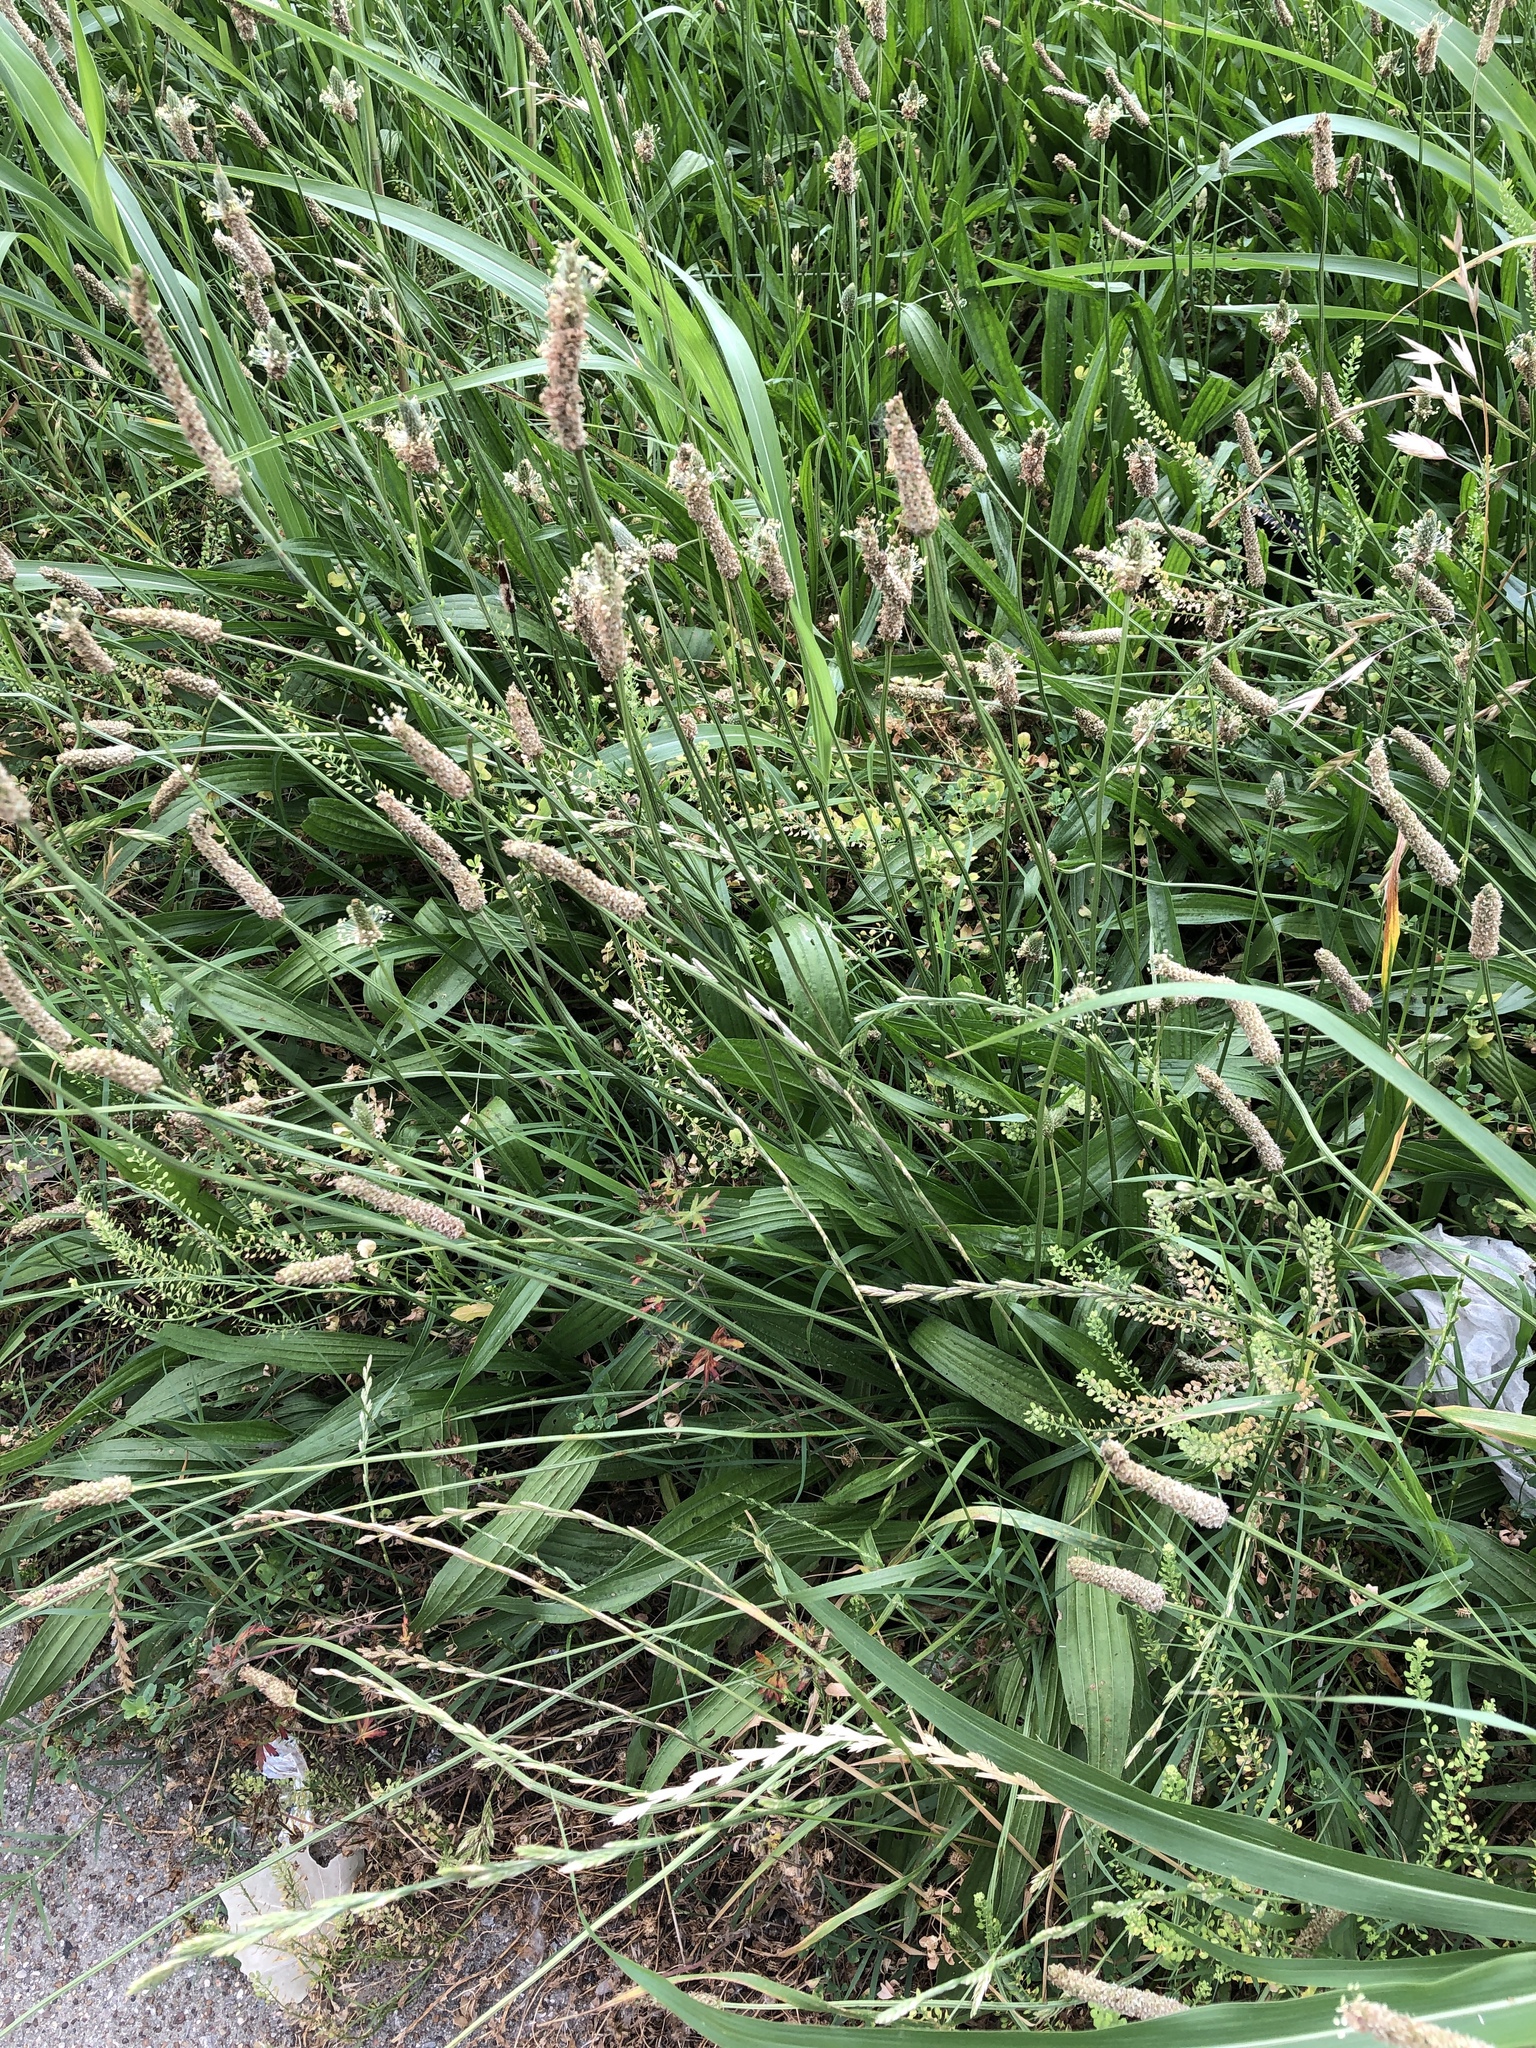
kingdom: Plantae
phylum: Tracheophyta
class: Magnoliopsida
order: Lamiales
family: Plantaginaceae
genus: Plantago
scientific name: Plantago lanceolata
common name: Ribwort plantain
